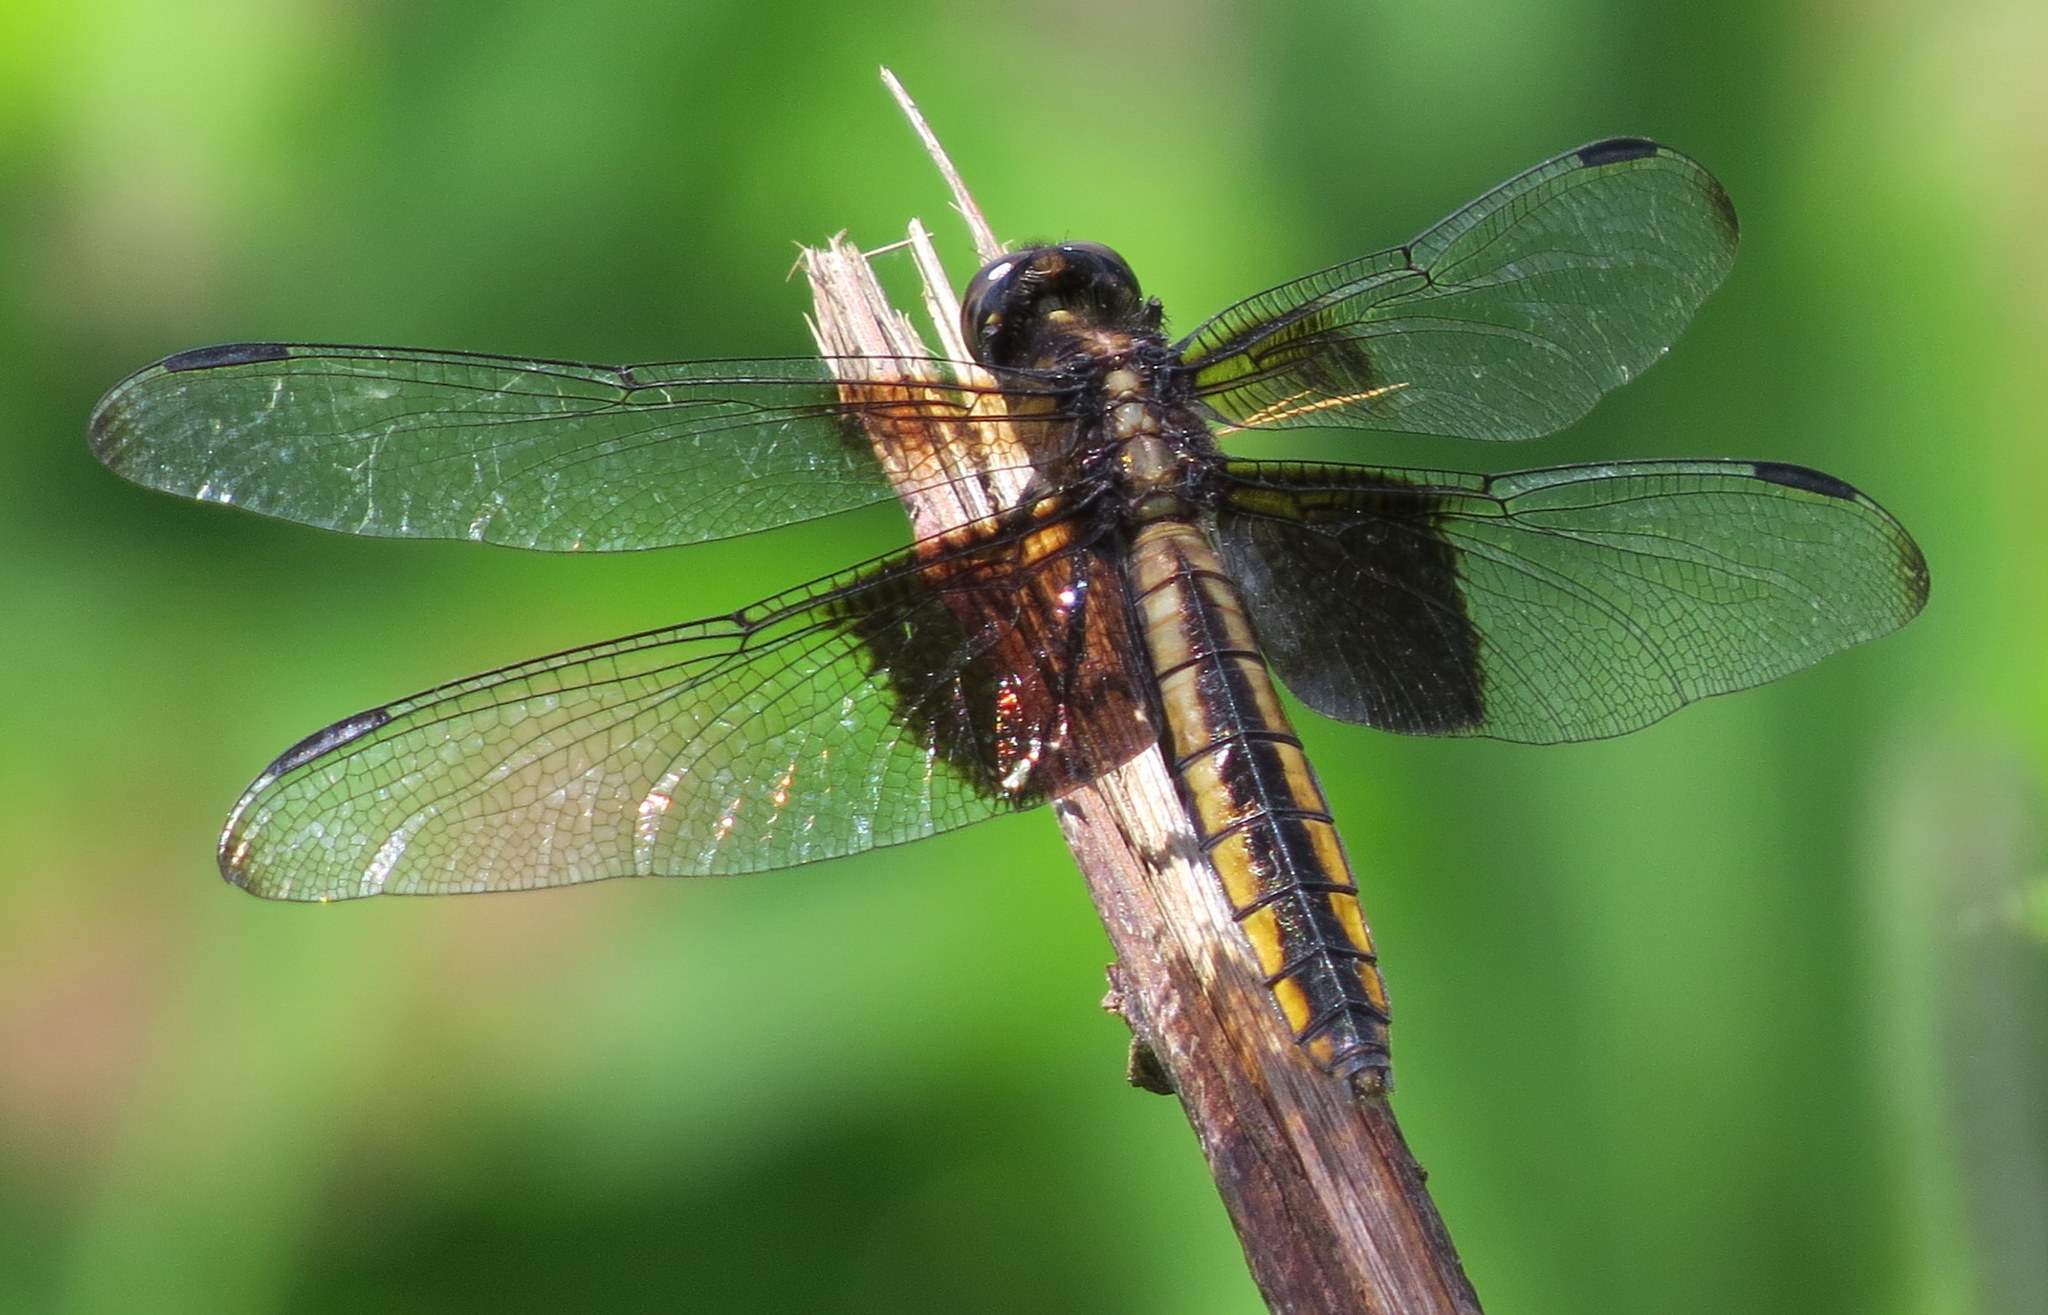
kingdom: Animalia
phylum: Arthropoda
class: Insecta
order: Odonata
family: Libellulidae
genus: Libellula
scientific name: Libellula luctuosa
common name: Widow skimmer
